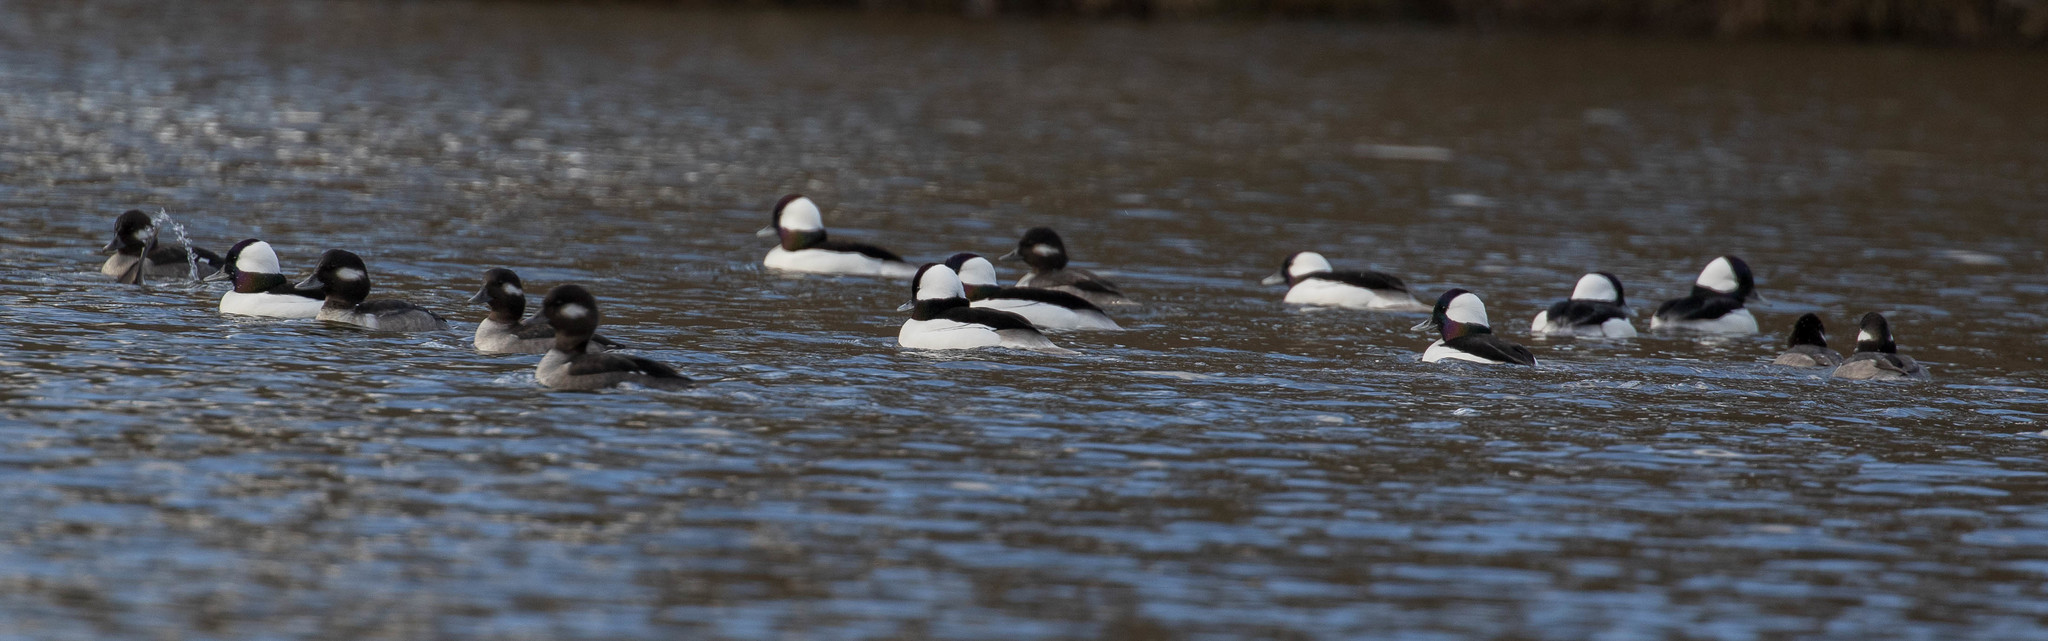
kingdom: Animalia
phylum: Chordata
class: Aves
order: Anseriformes
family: Anatidae
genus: Bucephala
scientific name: Bucephala albeola
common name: Bufflehead
